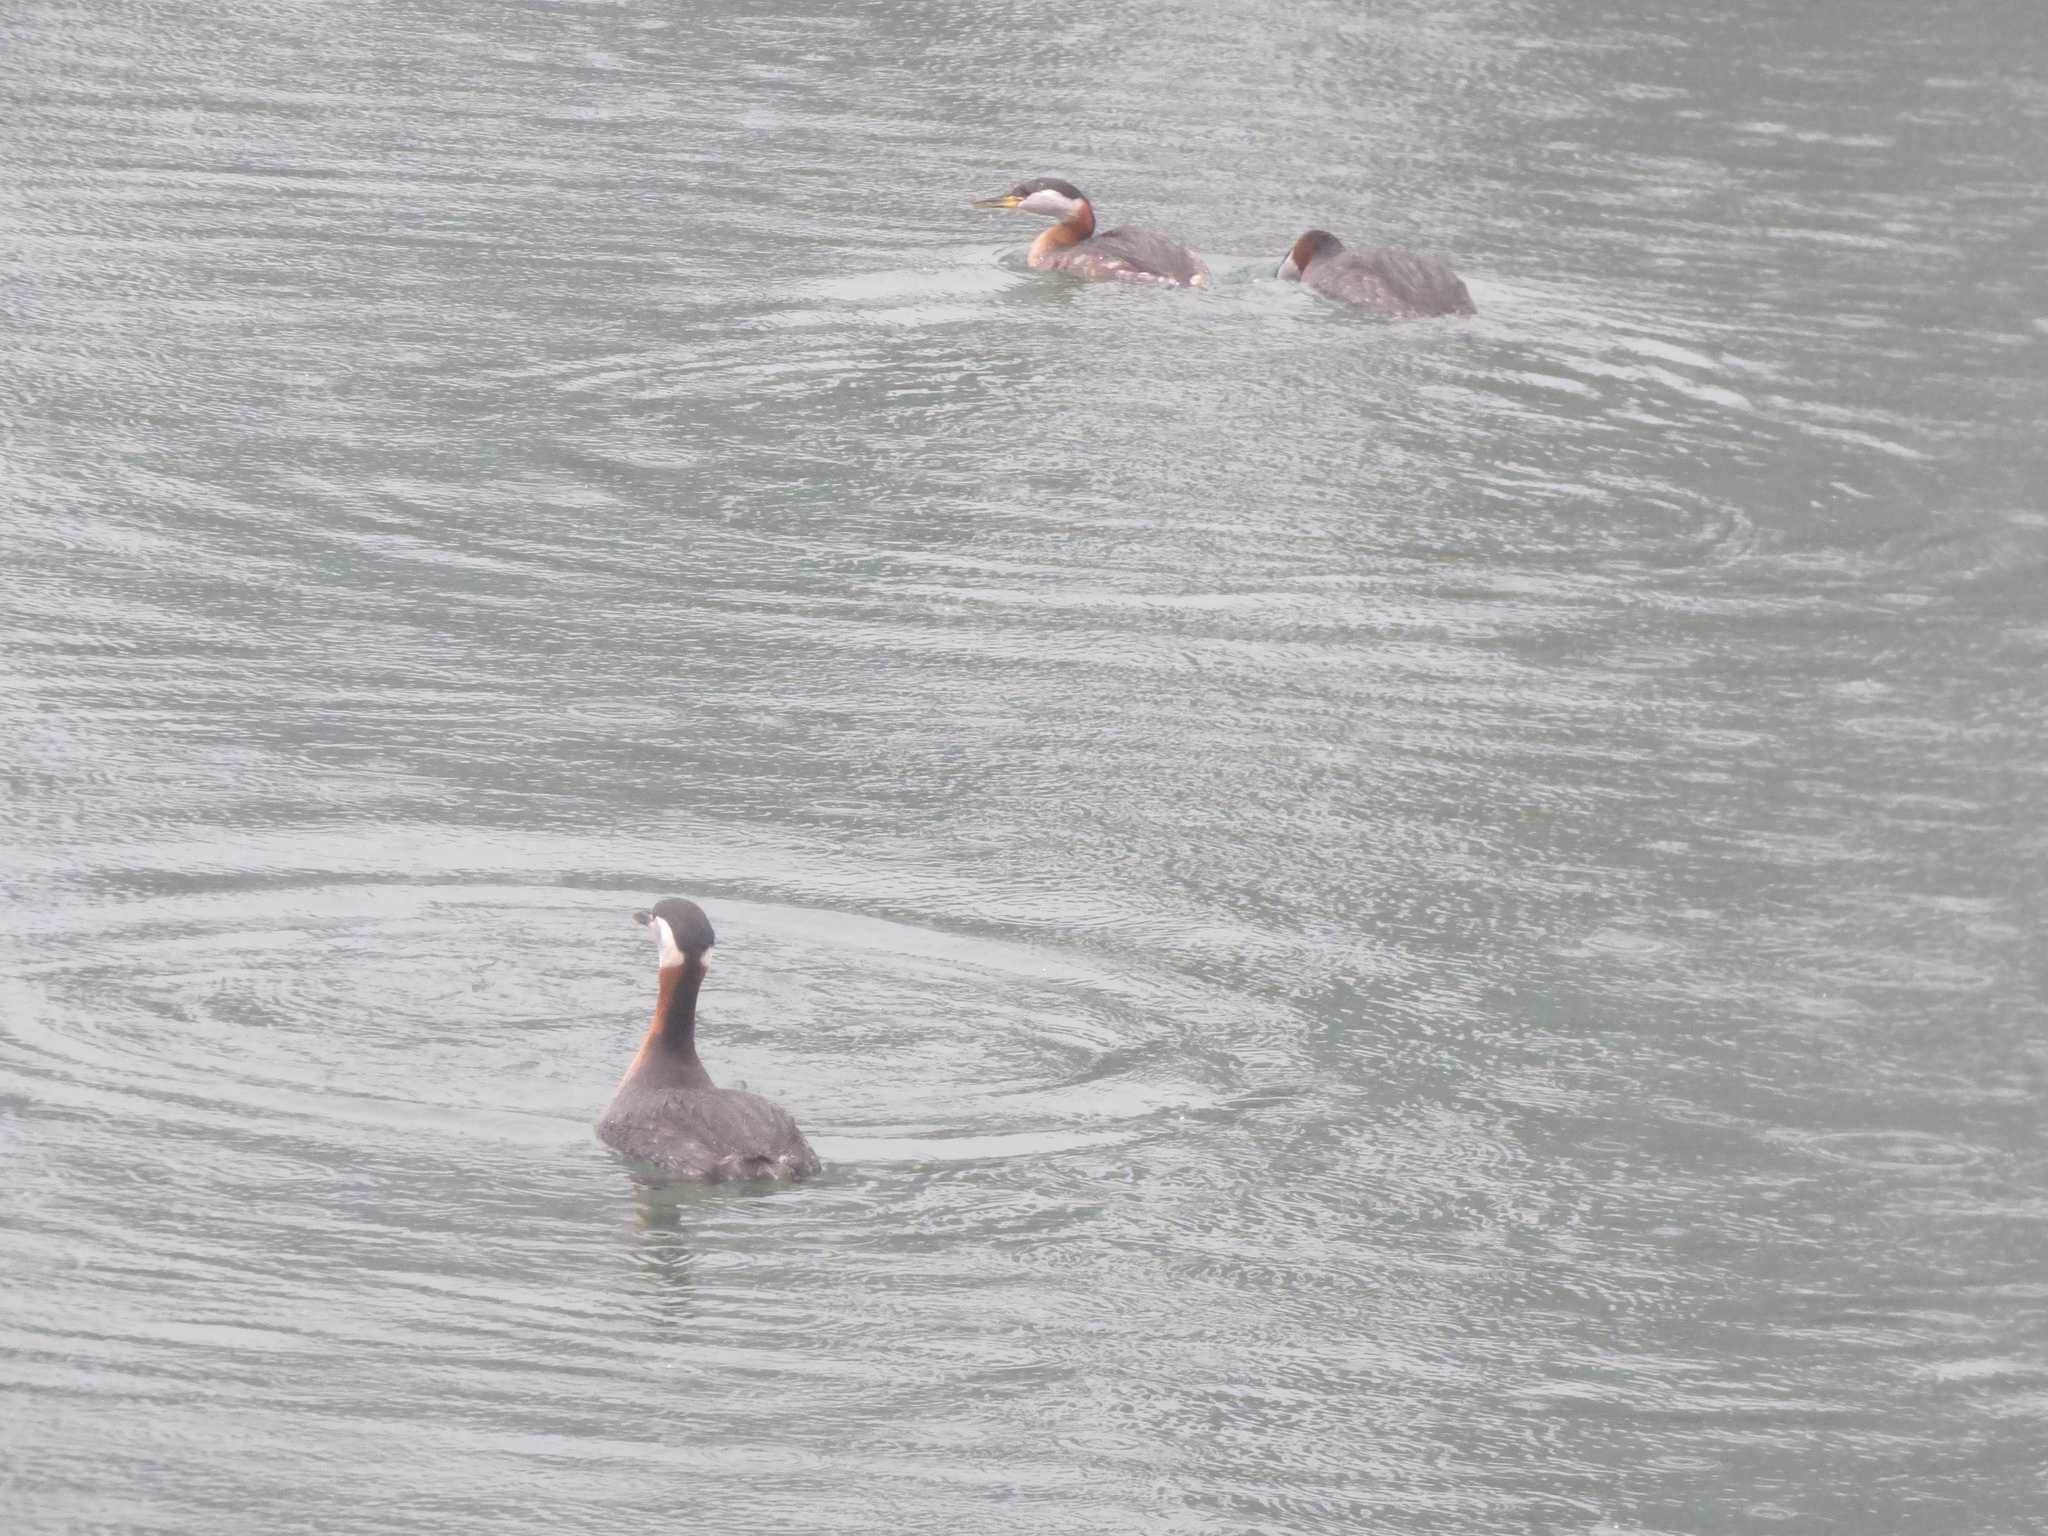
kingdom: Animalia
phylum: Chordata
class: Aves
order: Podicipediformes
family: Podicipedidae
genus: Podiceps
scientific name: Podiceps grisegena
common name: Red-necked grebe
